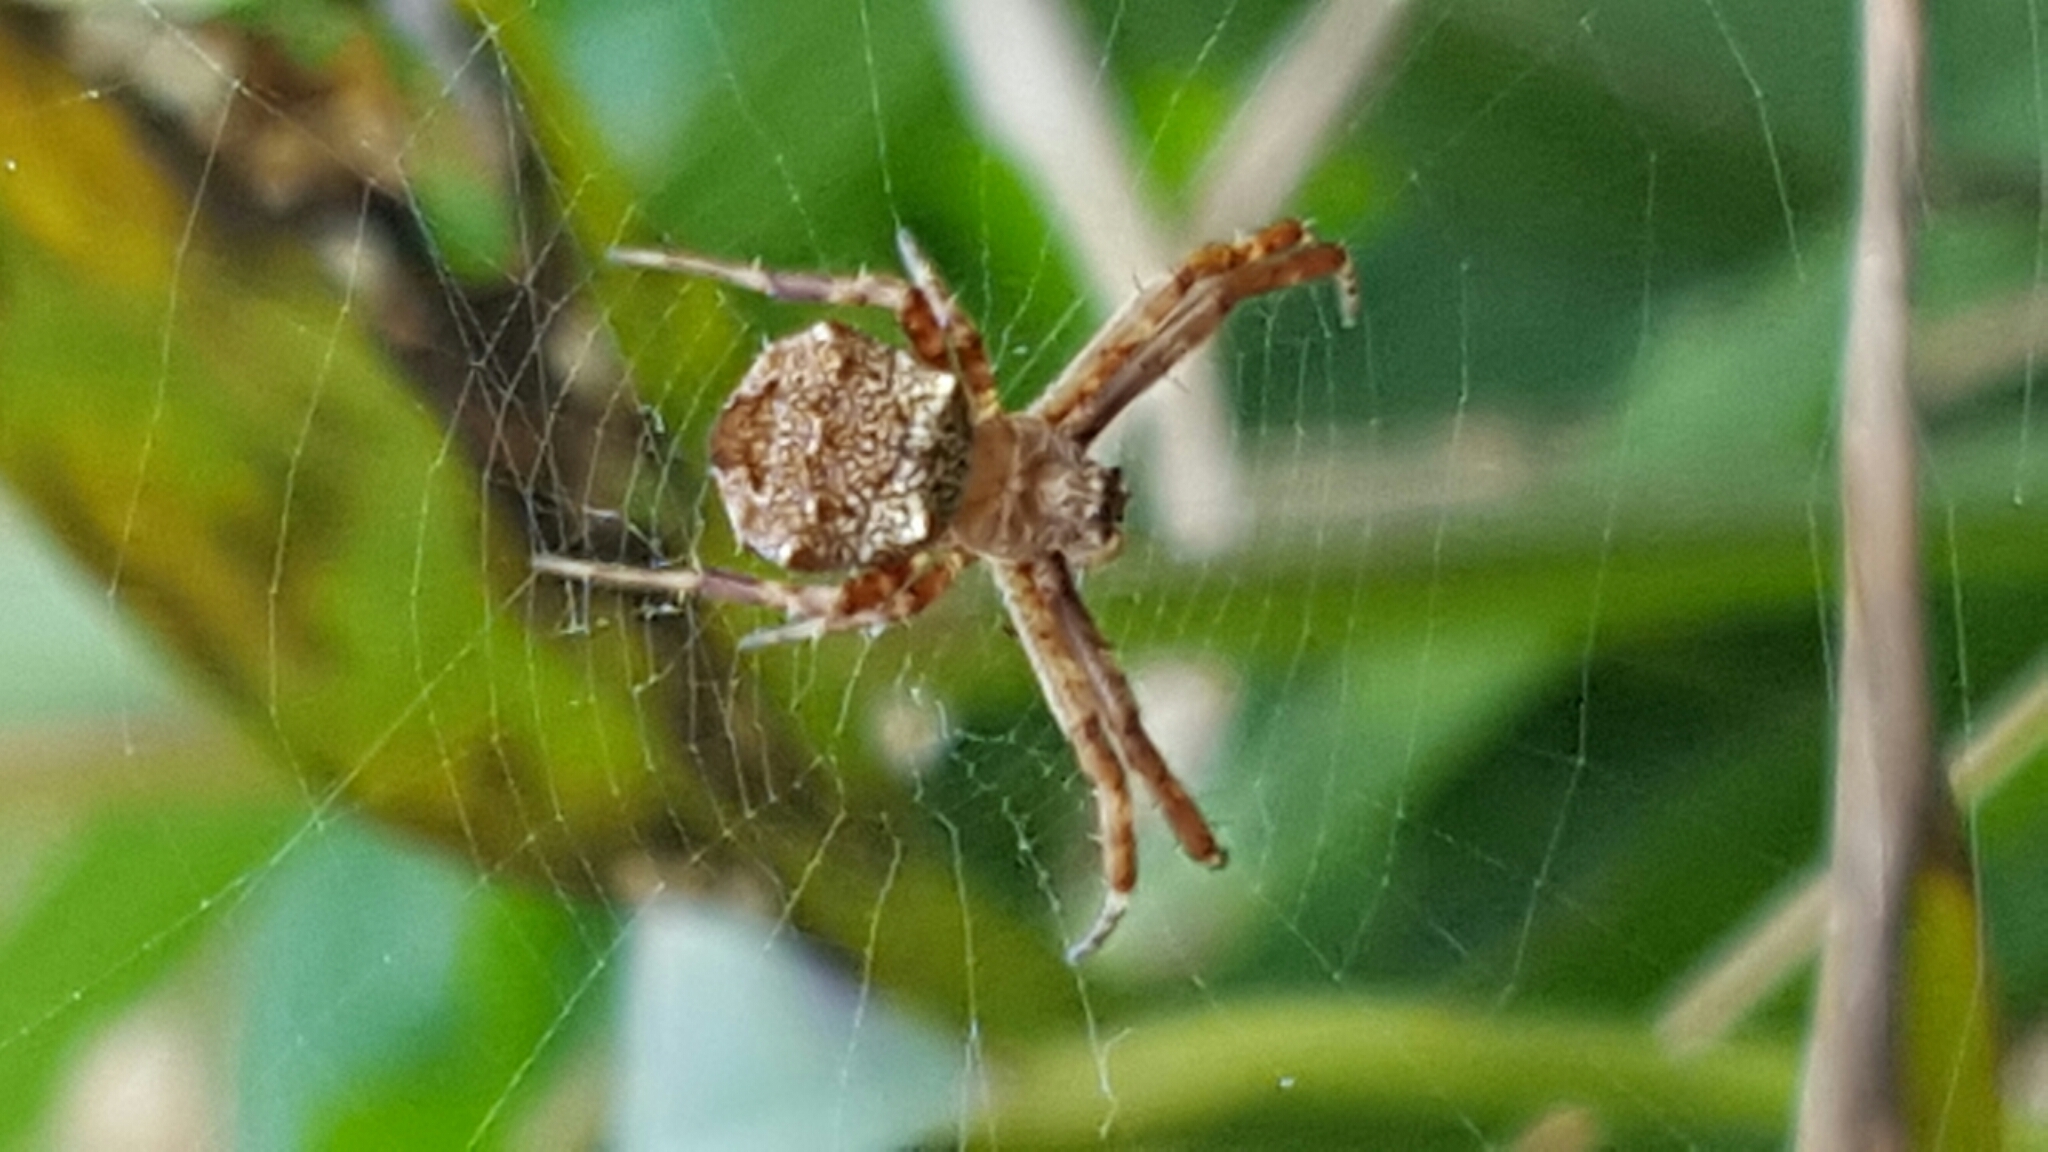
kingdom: Animalia
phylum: Arthropoda
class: Arachnida
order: Araneae
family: Araneidae
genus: Gea
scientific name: Gea heptagon
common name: Orb weavers
